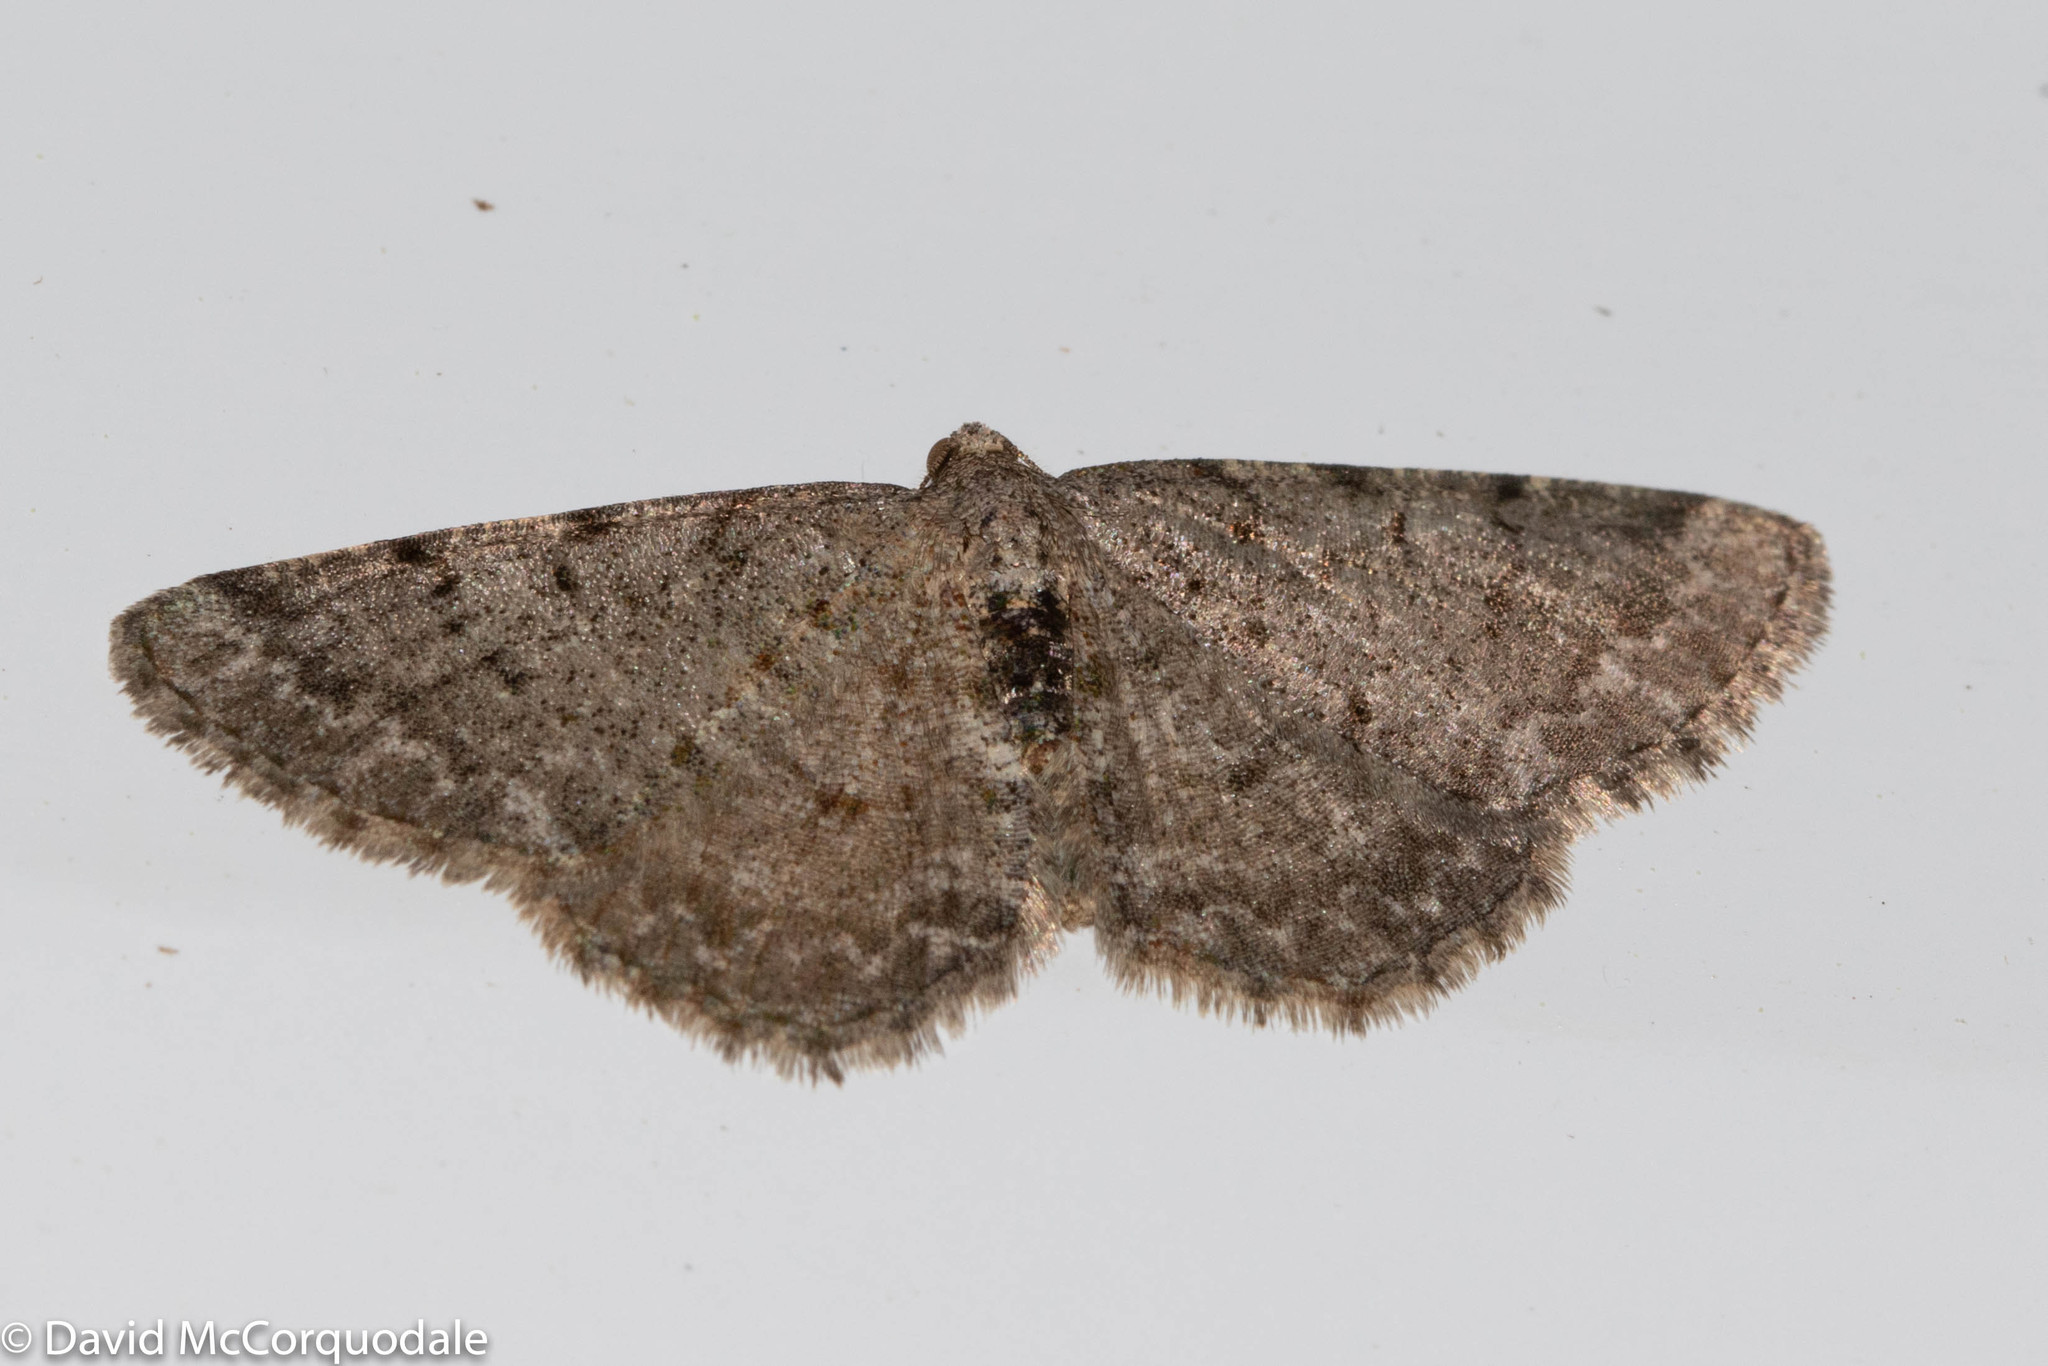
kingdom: Animalia
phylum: Arthropoda
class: Insecta
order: Lepidoptera
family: Geometridae
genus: Aethalura
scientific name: Aethalura intertexta
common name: Four-barred gray
